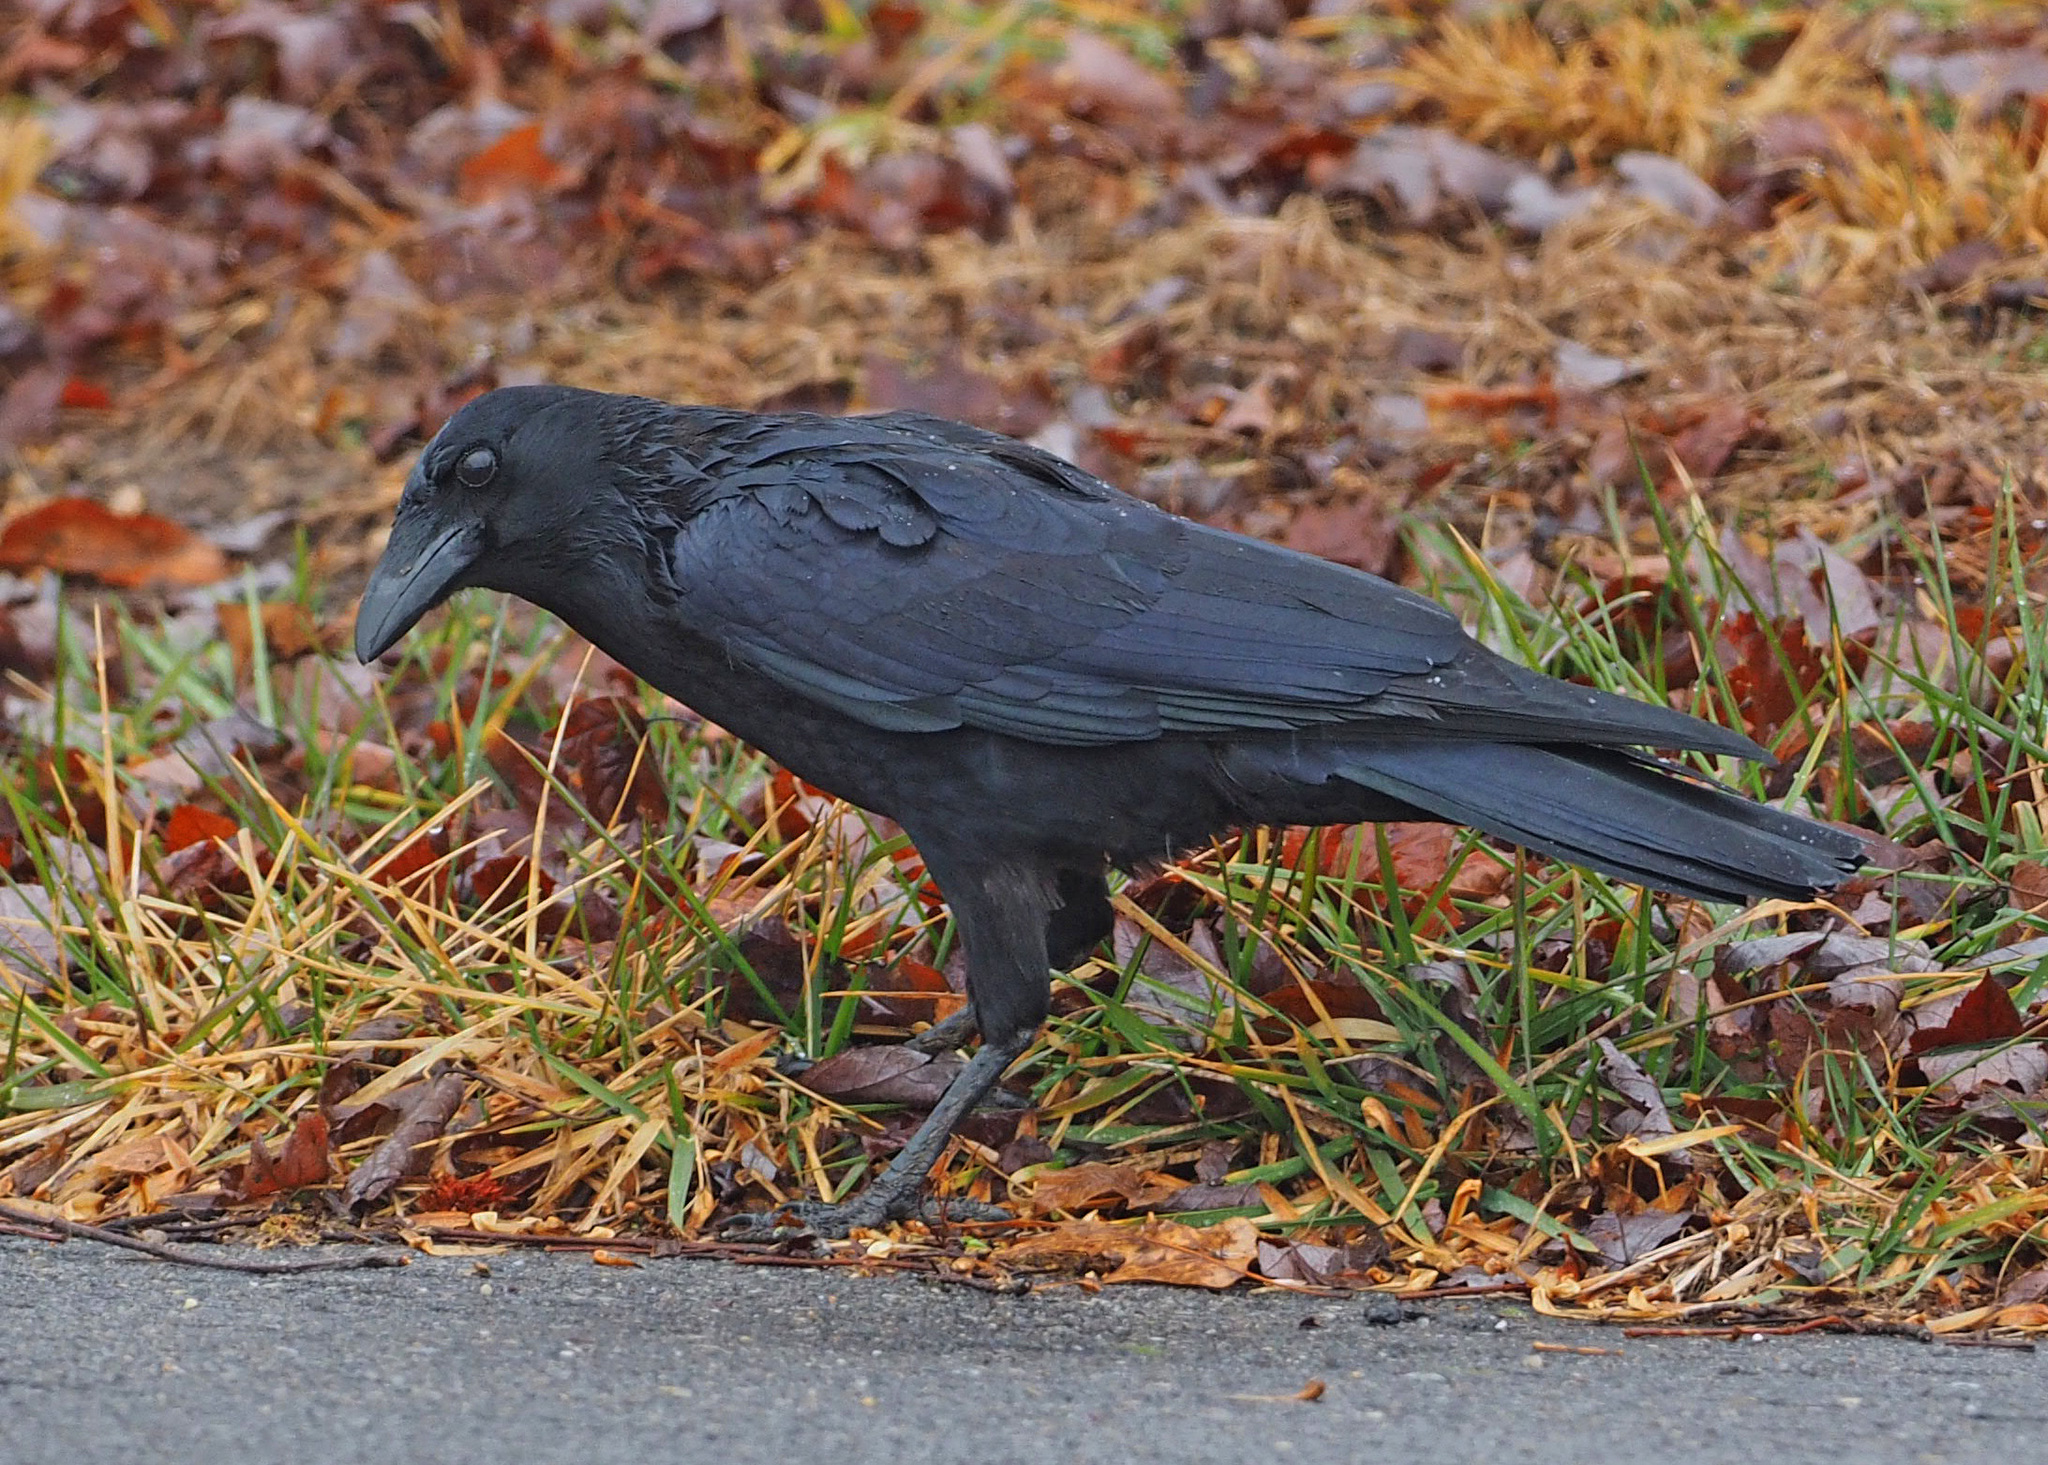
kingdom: Animalia
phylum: Chordata
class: Aves
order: Passeriformes
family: Corvidae
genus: Corvus
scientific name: Corvus brachyrhynchos
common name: American crow
